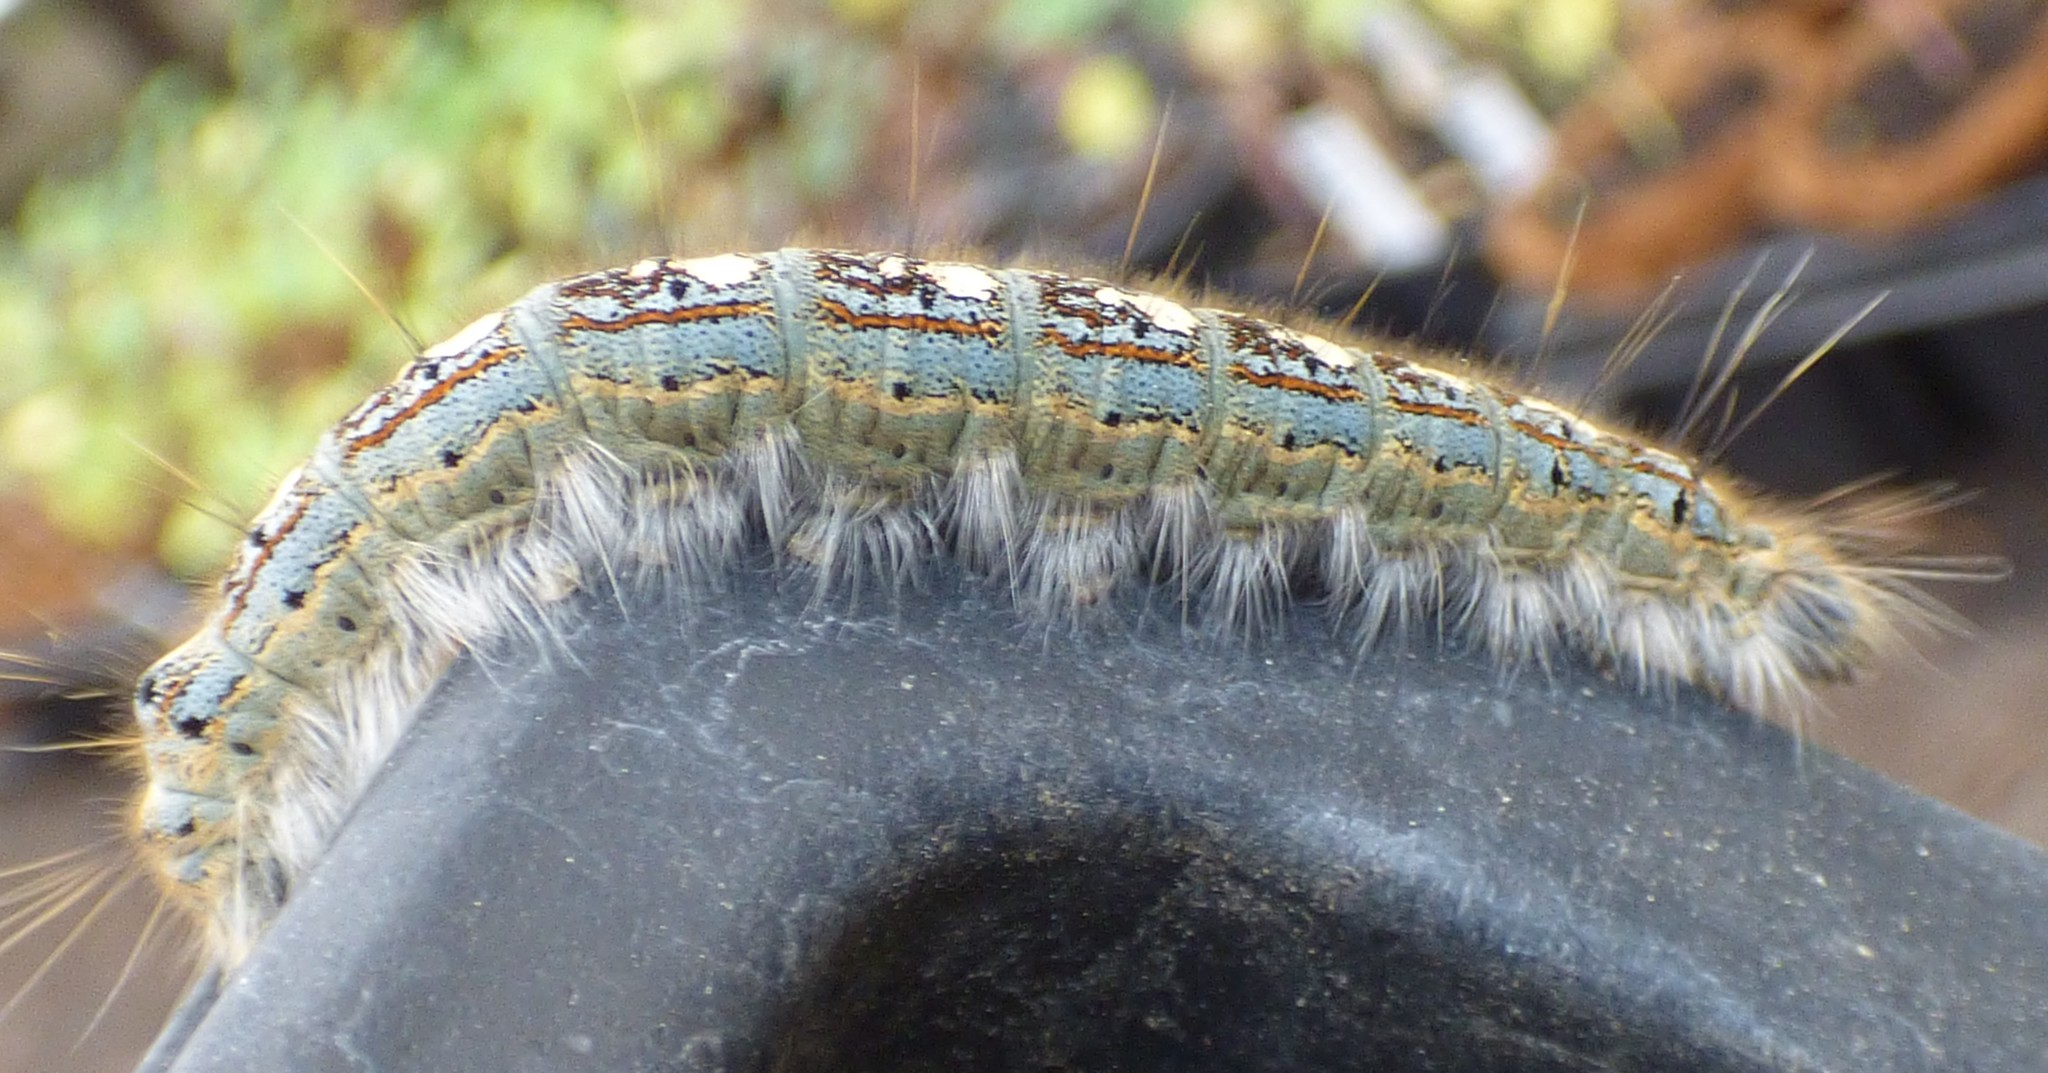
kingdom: Animalia
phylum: Arthropoda
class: Insecta
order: Lepidoptera
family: Lasiocampidae
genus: Malacosoma
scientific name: Malacosoma disstria
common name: Forest tent caterpillar
